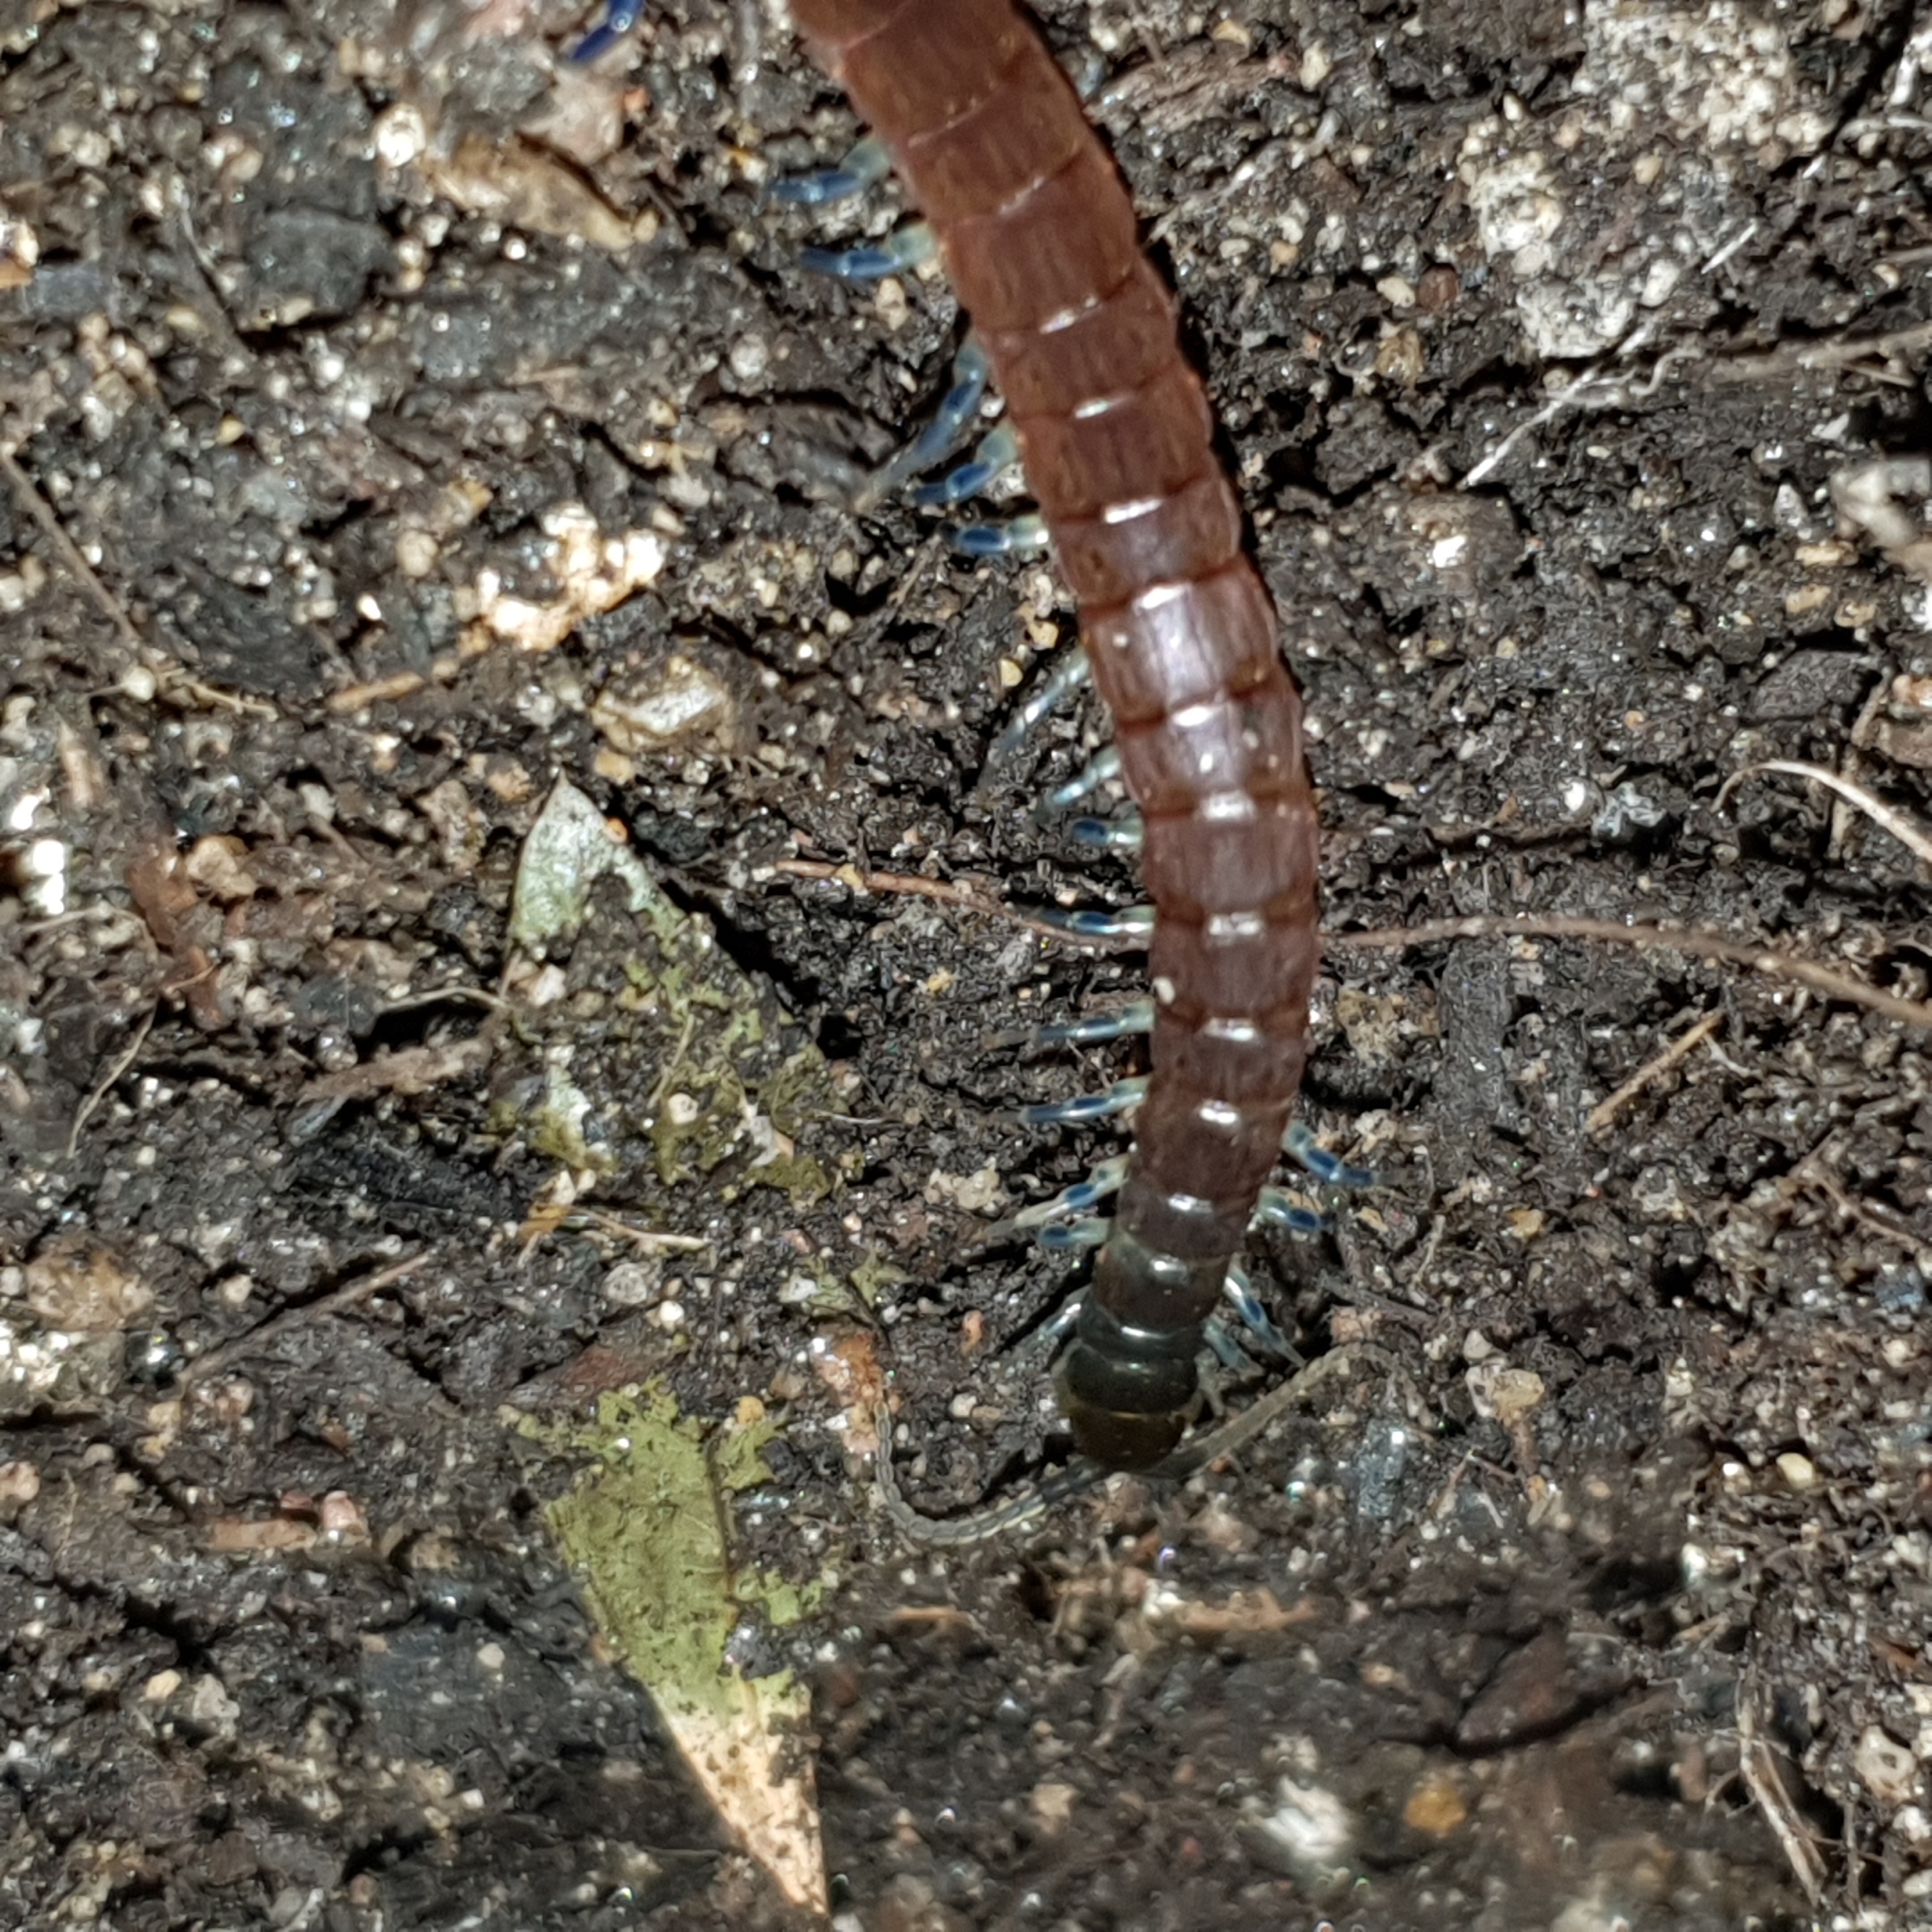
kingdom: Animalia
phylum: Arthropoda
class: Chilopoda
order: Scolopendromorpha
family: Scolopendridae
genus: Rhysida
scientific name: Rhysida nuda
